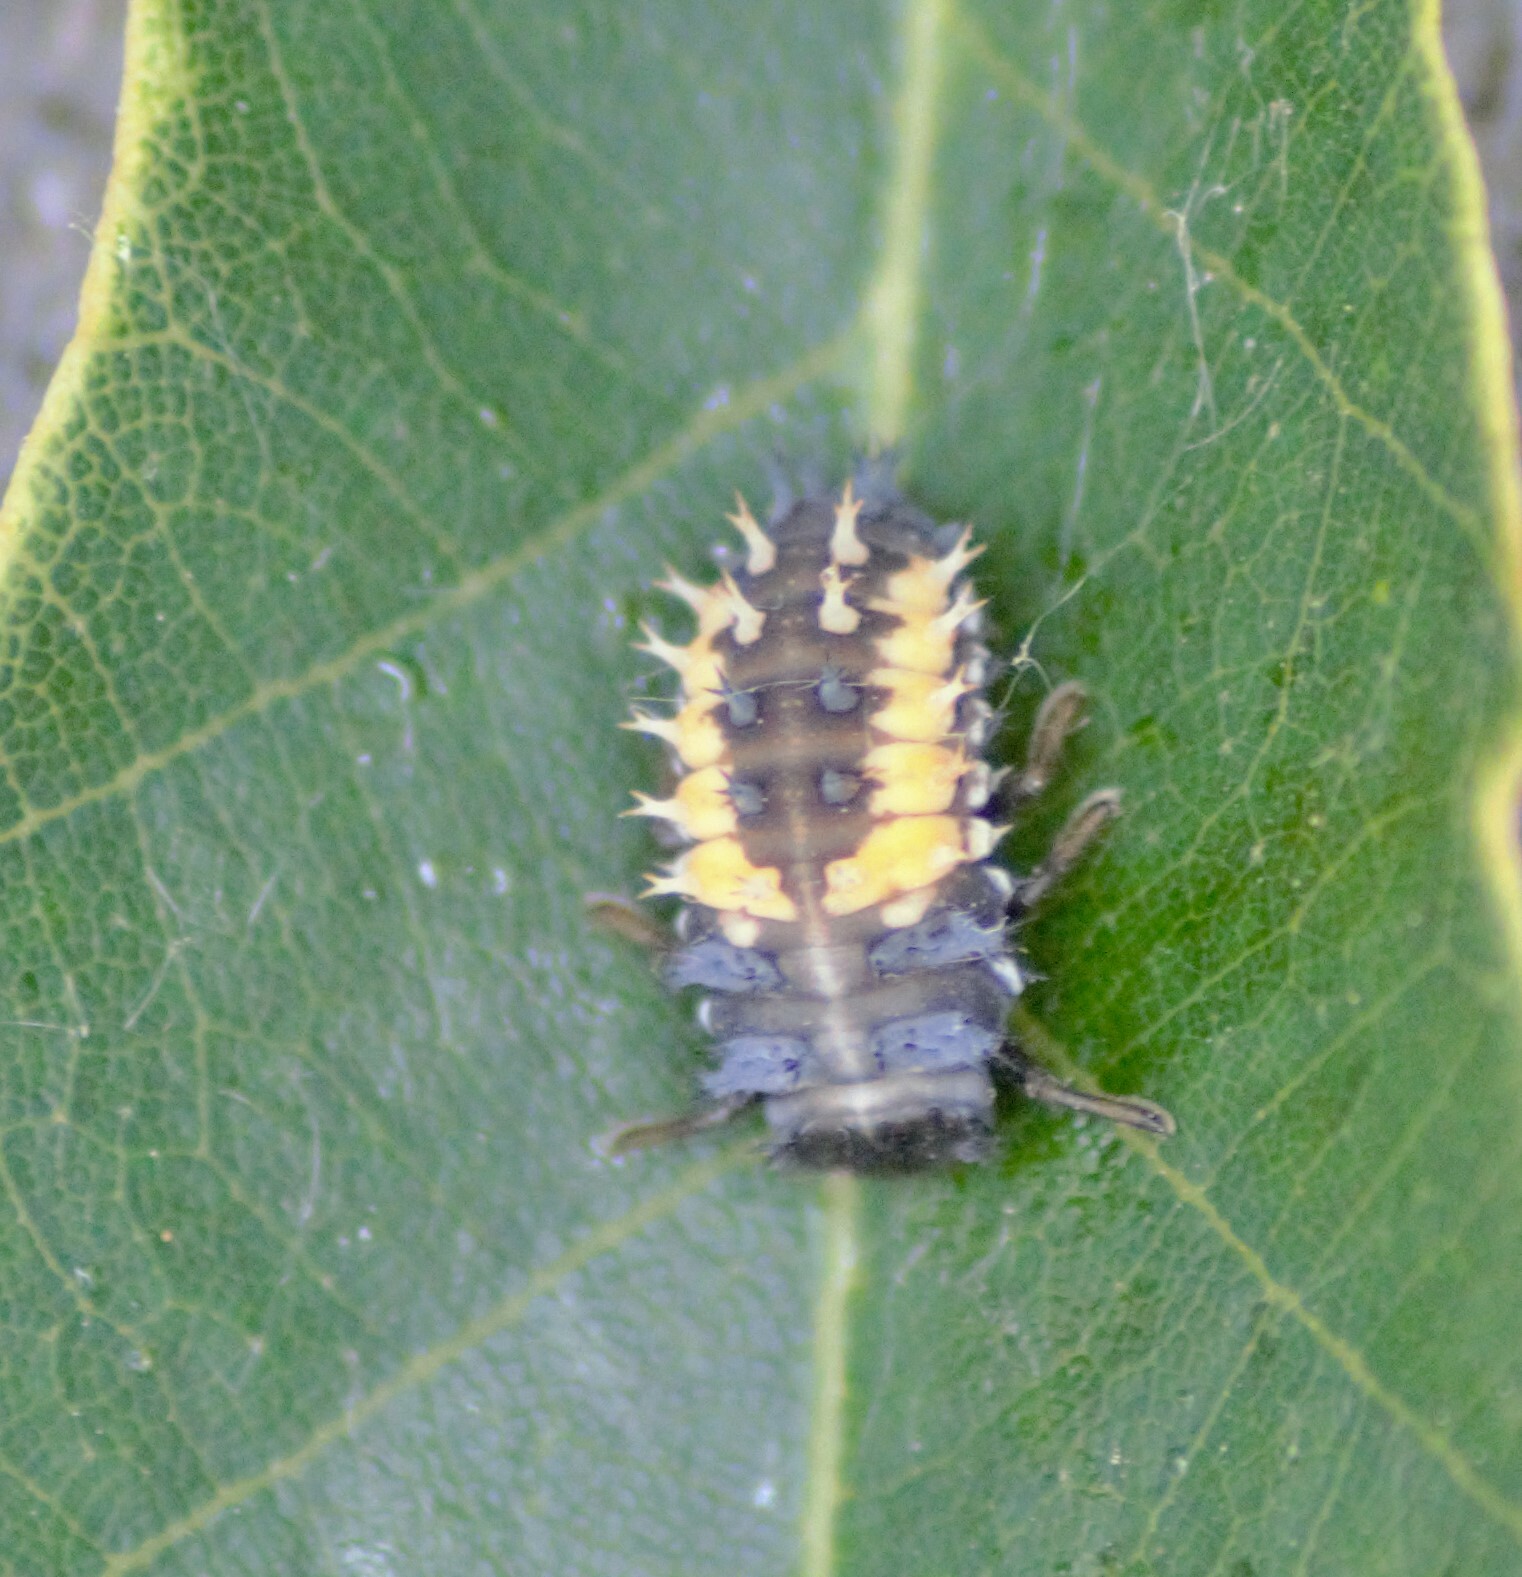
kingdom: Animalia
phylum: Arthropoda
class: Insecta
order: Coleoptera
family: Coccinellidae
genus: Harmonia
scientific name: Harmonia axyridis
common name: Harlequin ladybird
